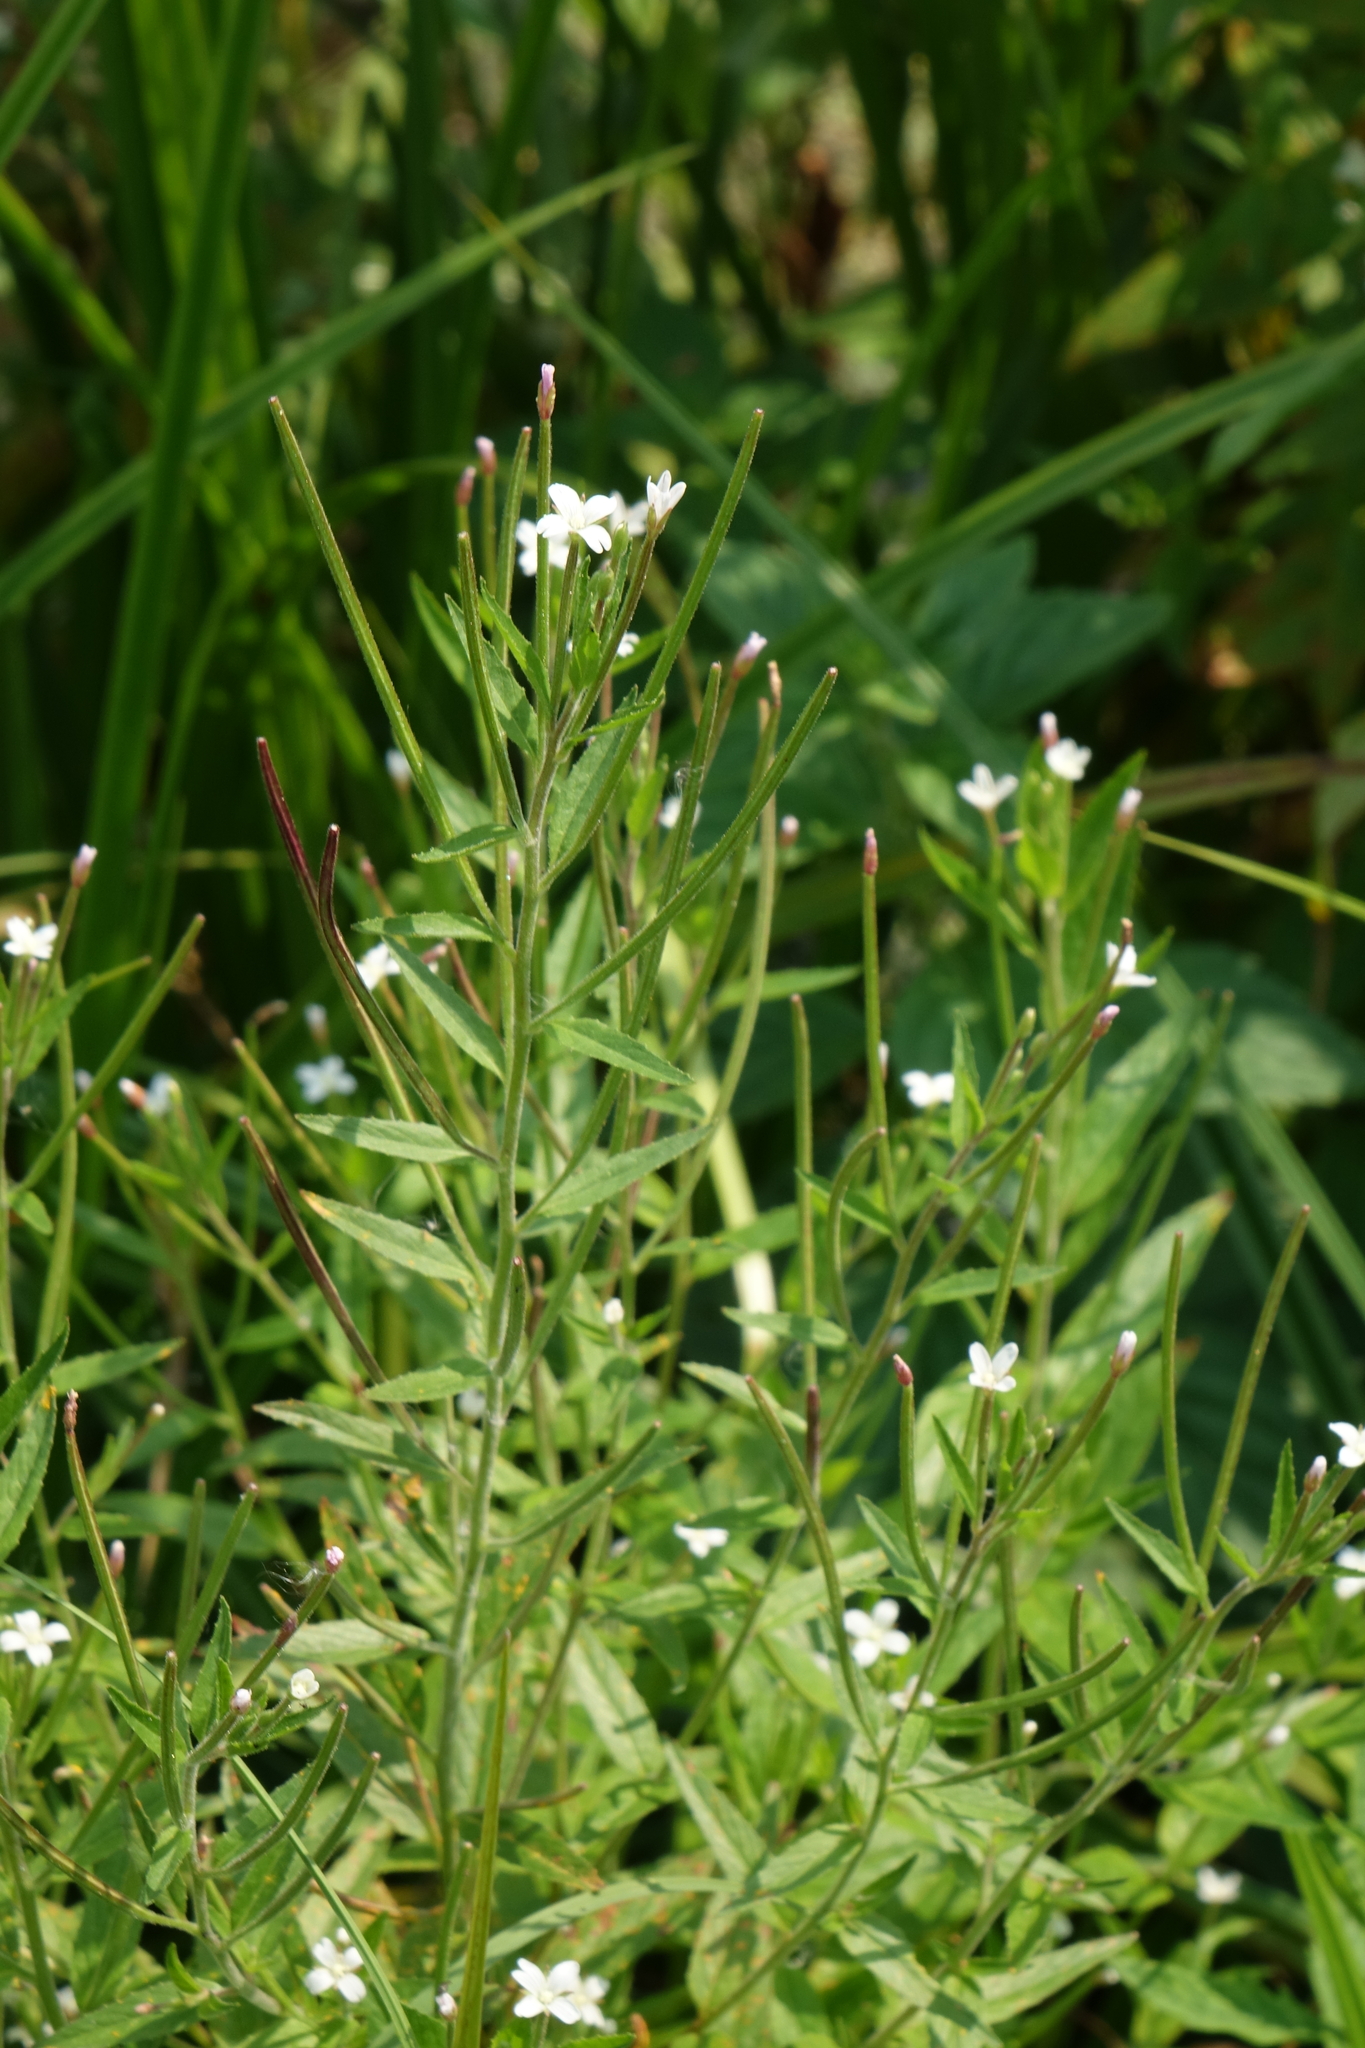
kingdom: Plantae
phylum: Tracheophyta
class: Magnoliopsida
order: Myrtales
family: Onagraceae
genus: Epilobium
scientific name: Epilobium pseudorubescens
